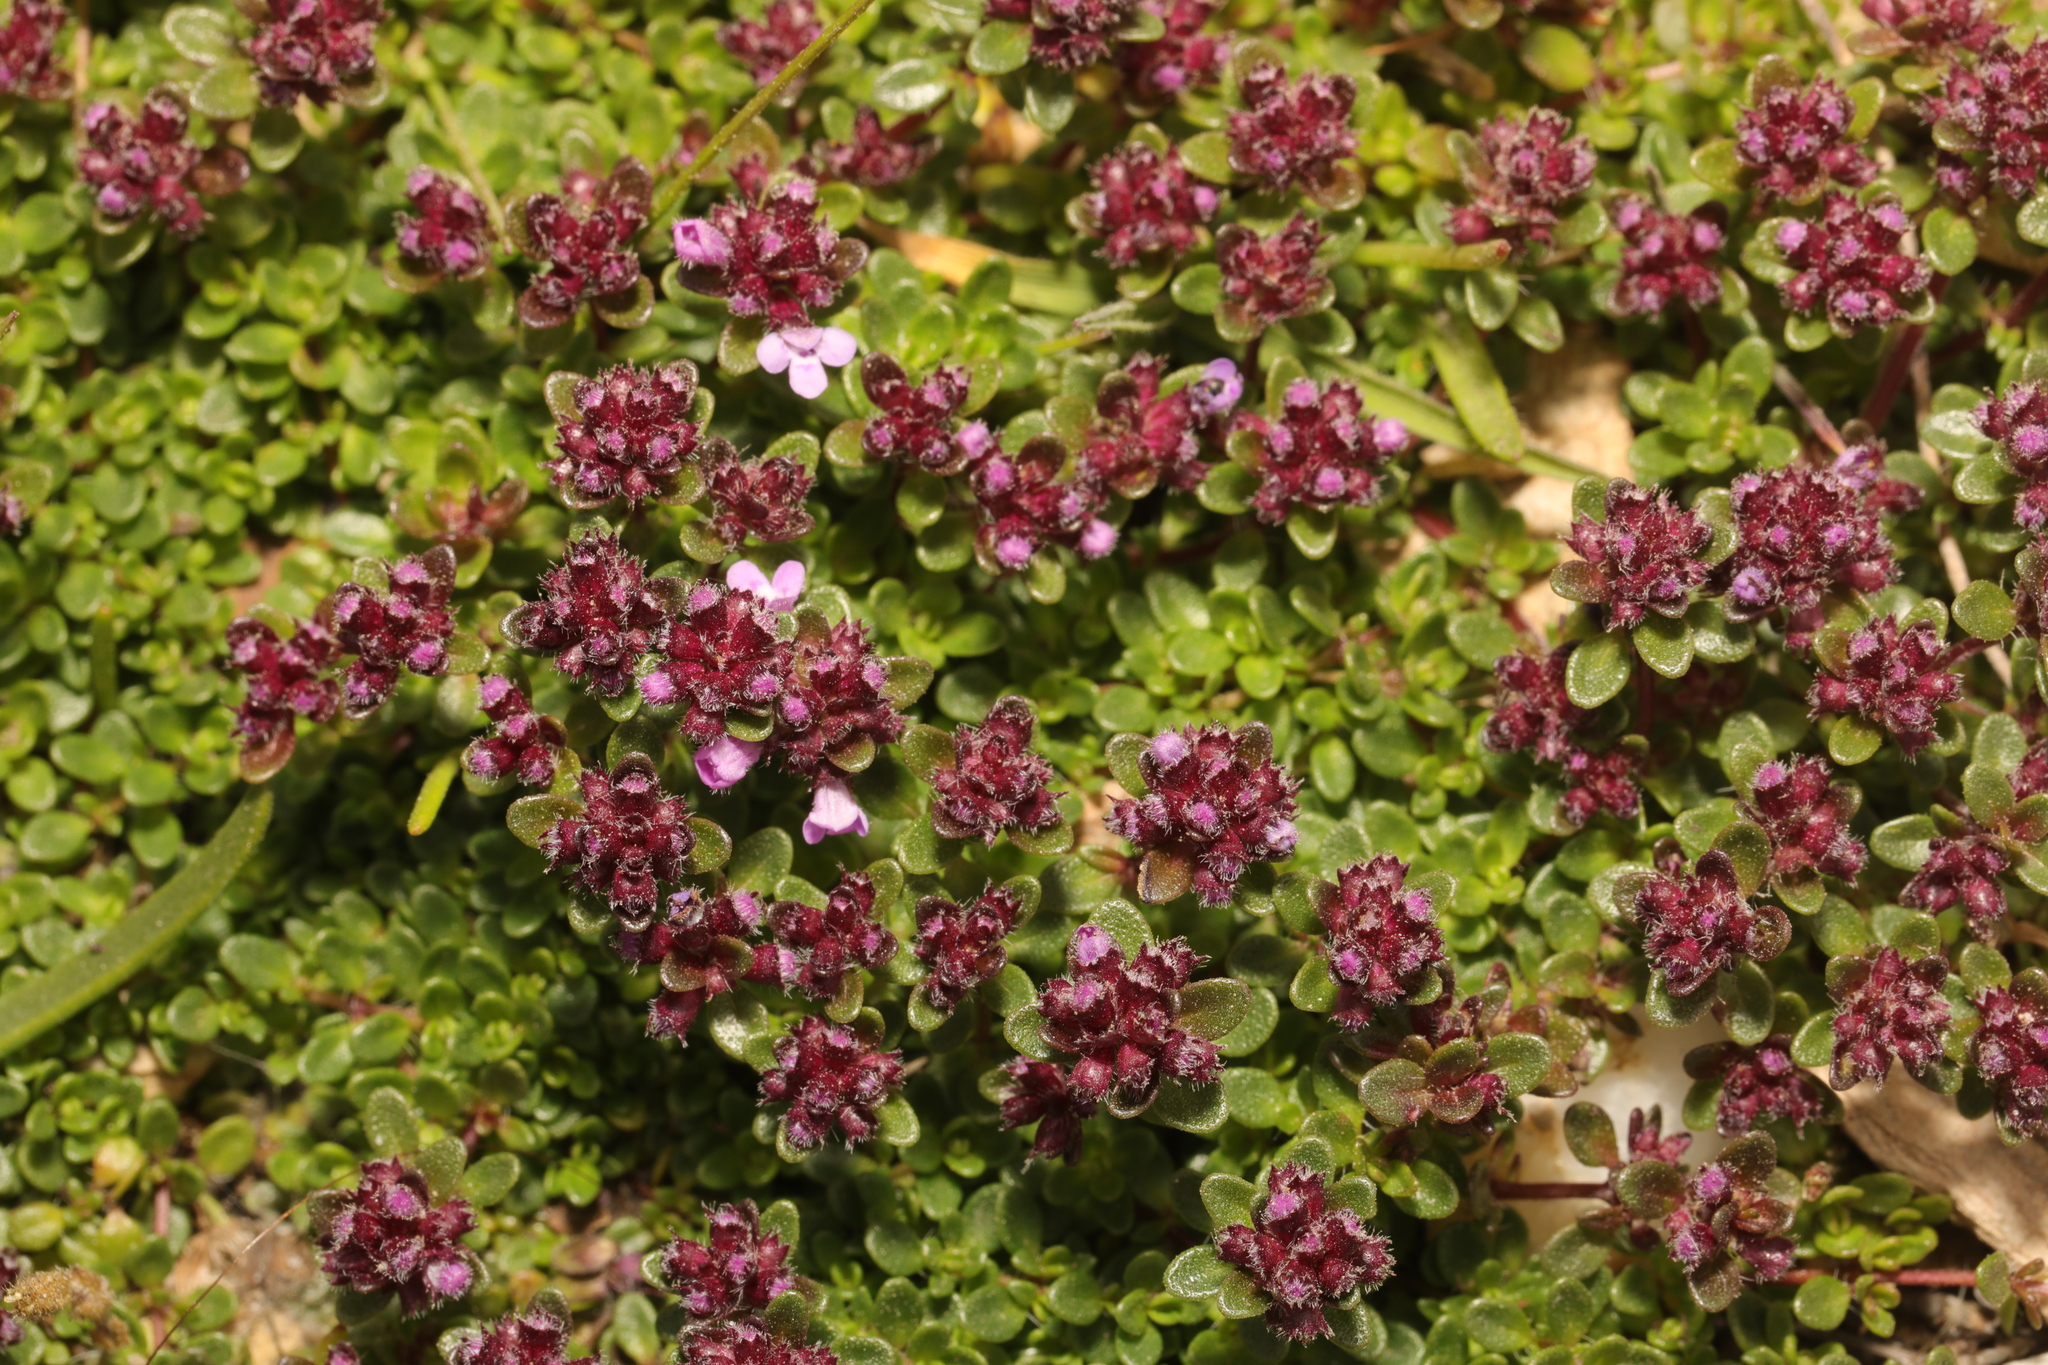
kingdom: Plantae
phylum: Tracheophyta
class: Magnoliopsida
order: Lamiales
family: Lamiaceae
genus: Thymus
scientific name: Thymus praecox
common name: Wild thyme
